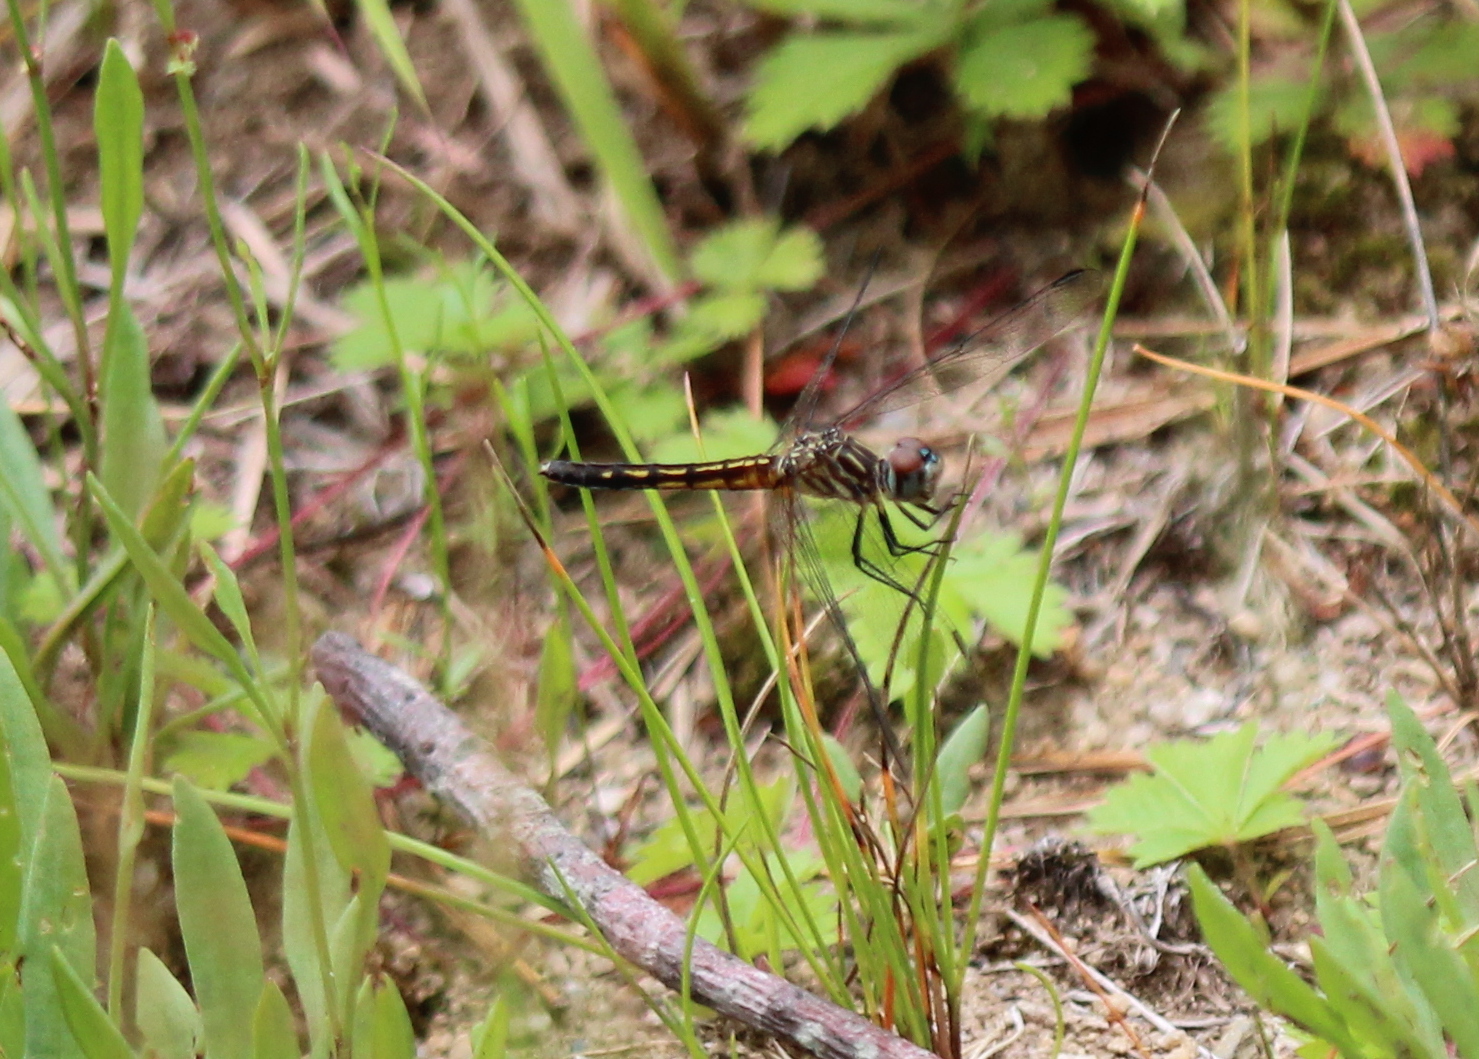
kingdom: Animalia
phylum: Arthropoda
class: Insecta
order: Odonata
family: Libellulidae
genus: Pachydiplax
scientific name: Pachydiplax longipennis
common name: Blue dasher
